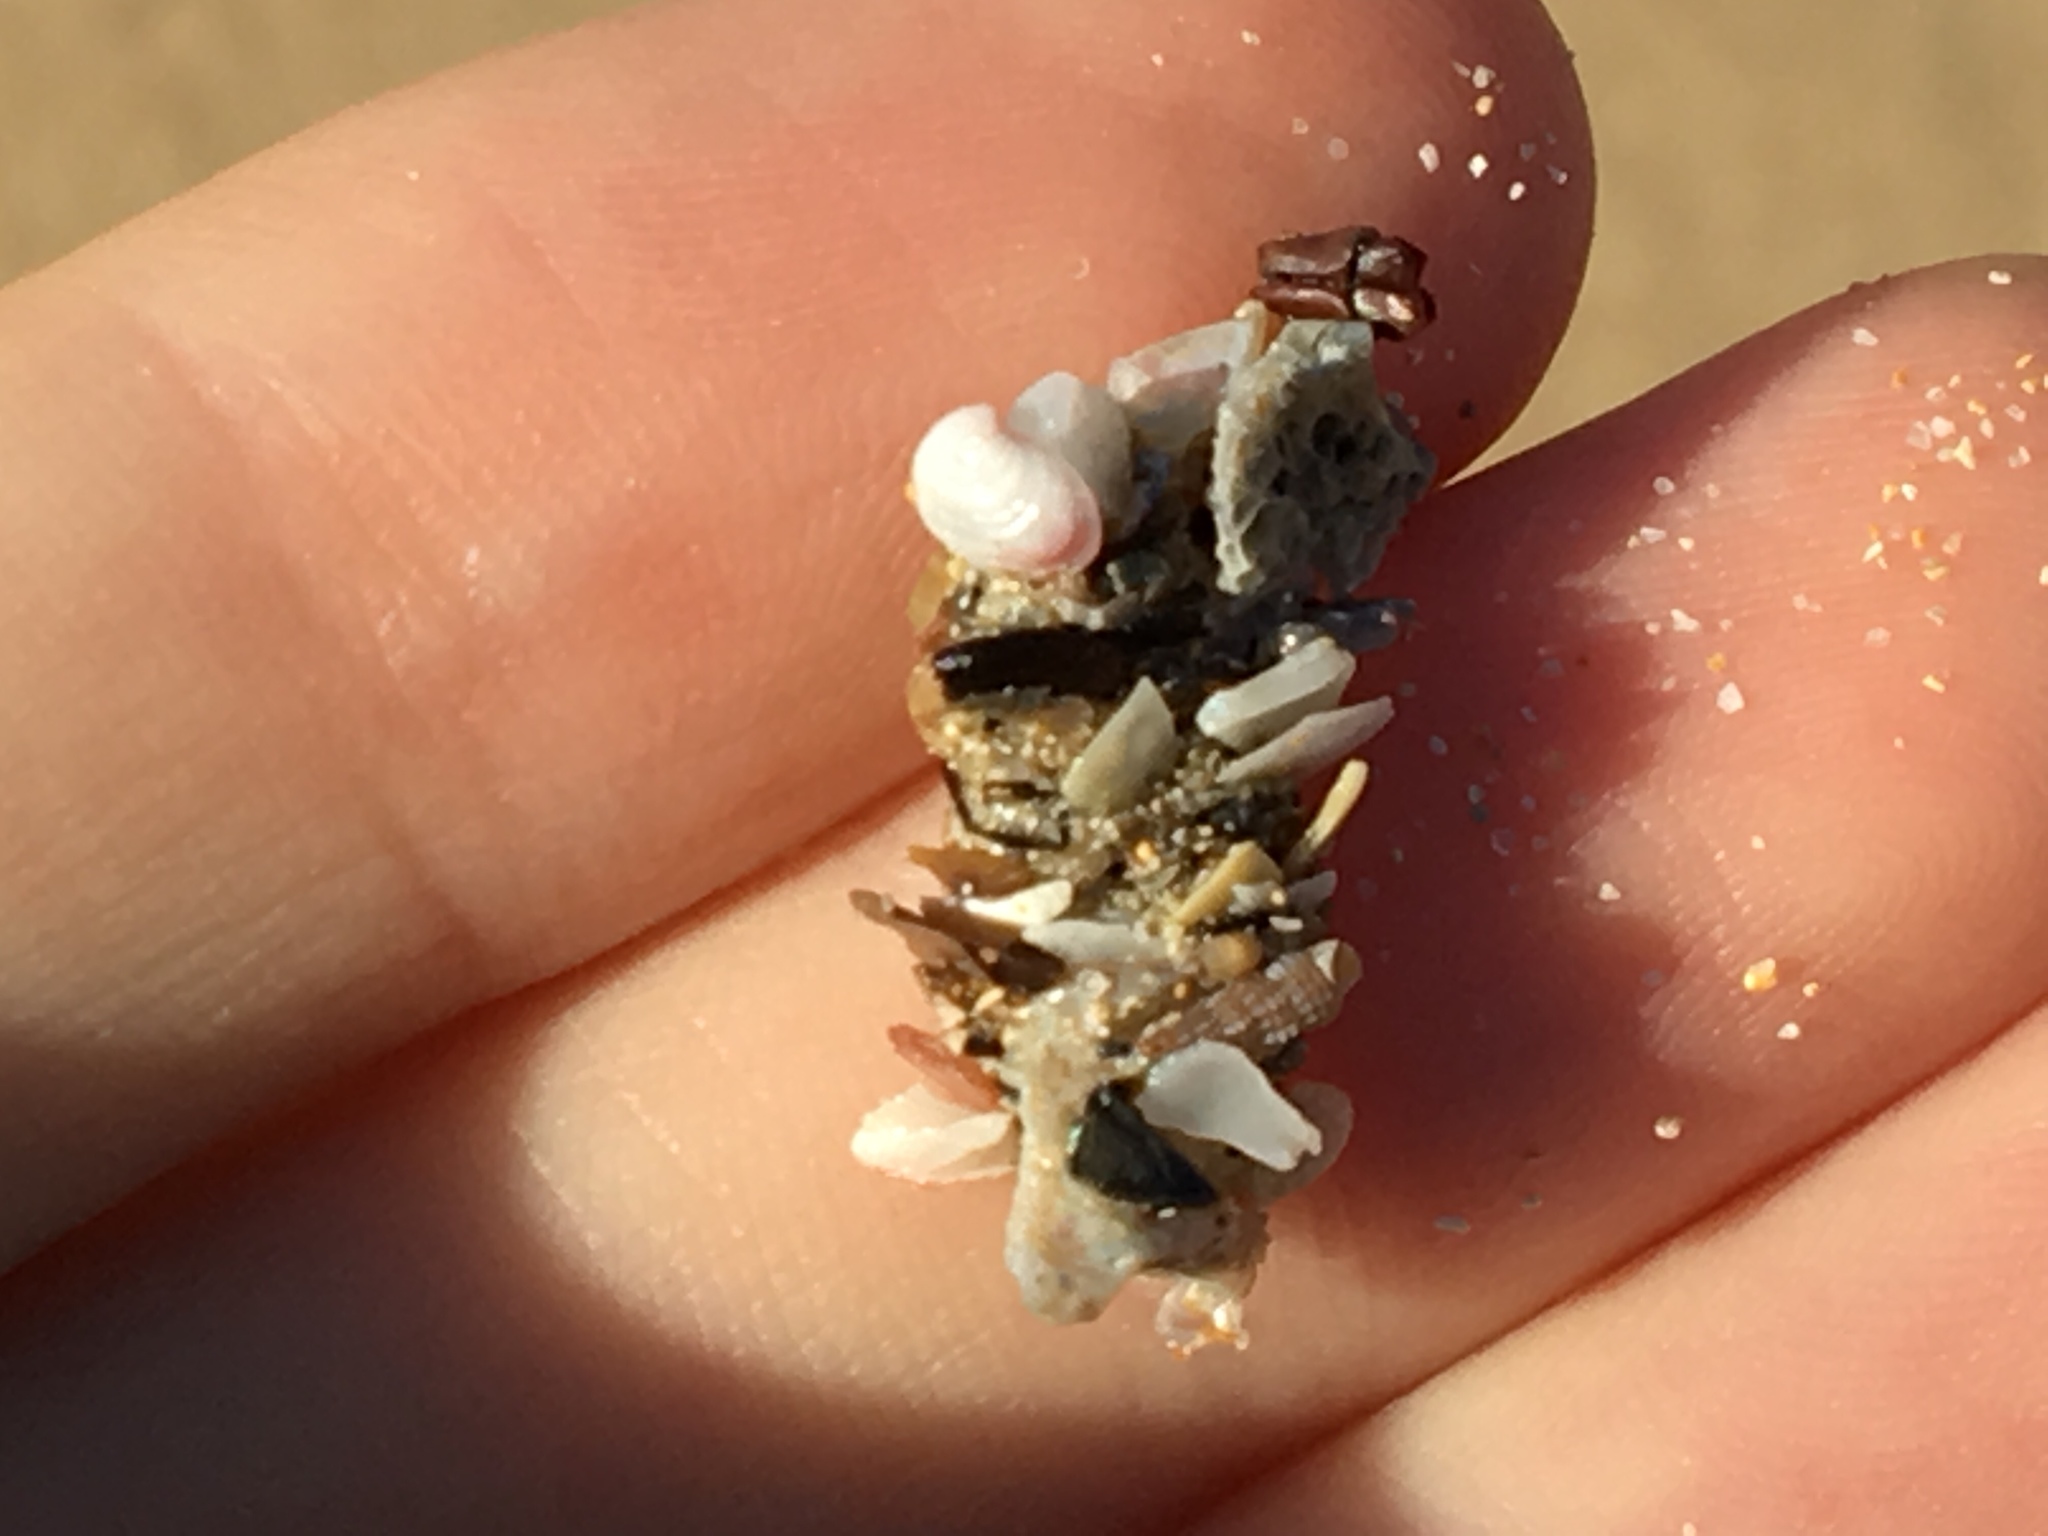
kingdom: Animalia
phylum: Annelida
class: Polychaeta
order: Eunicida
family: Onuphidae
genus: Diopatra
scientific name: Diopatra dentata
